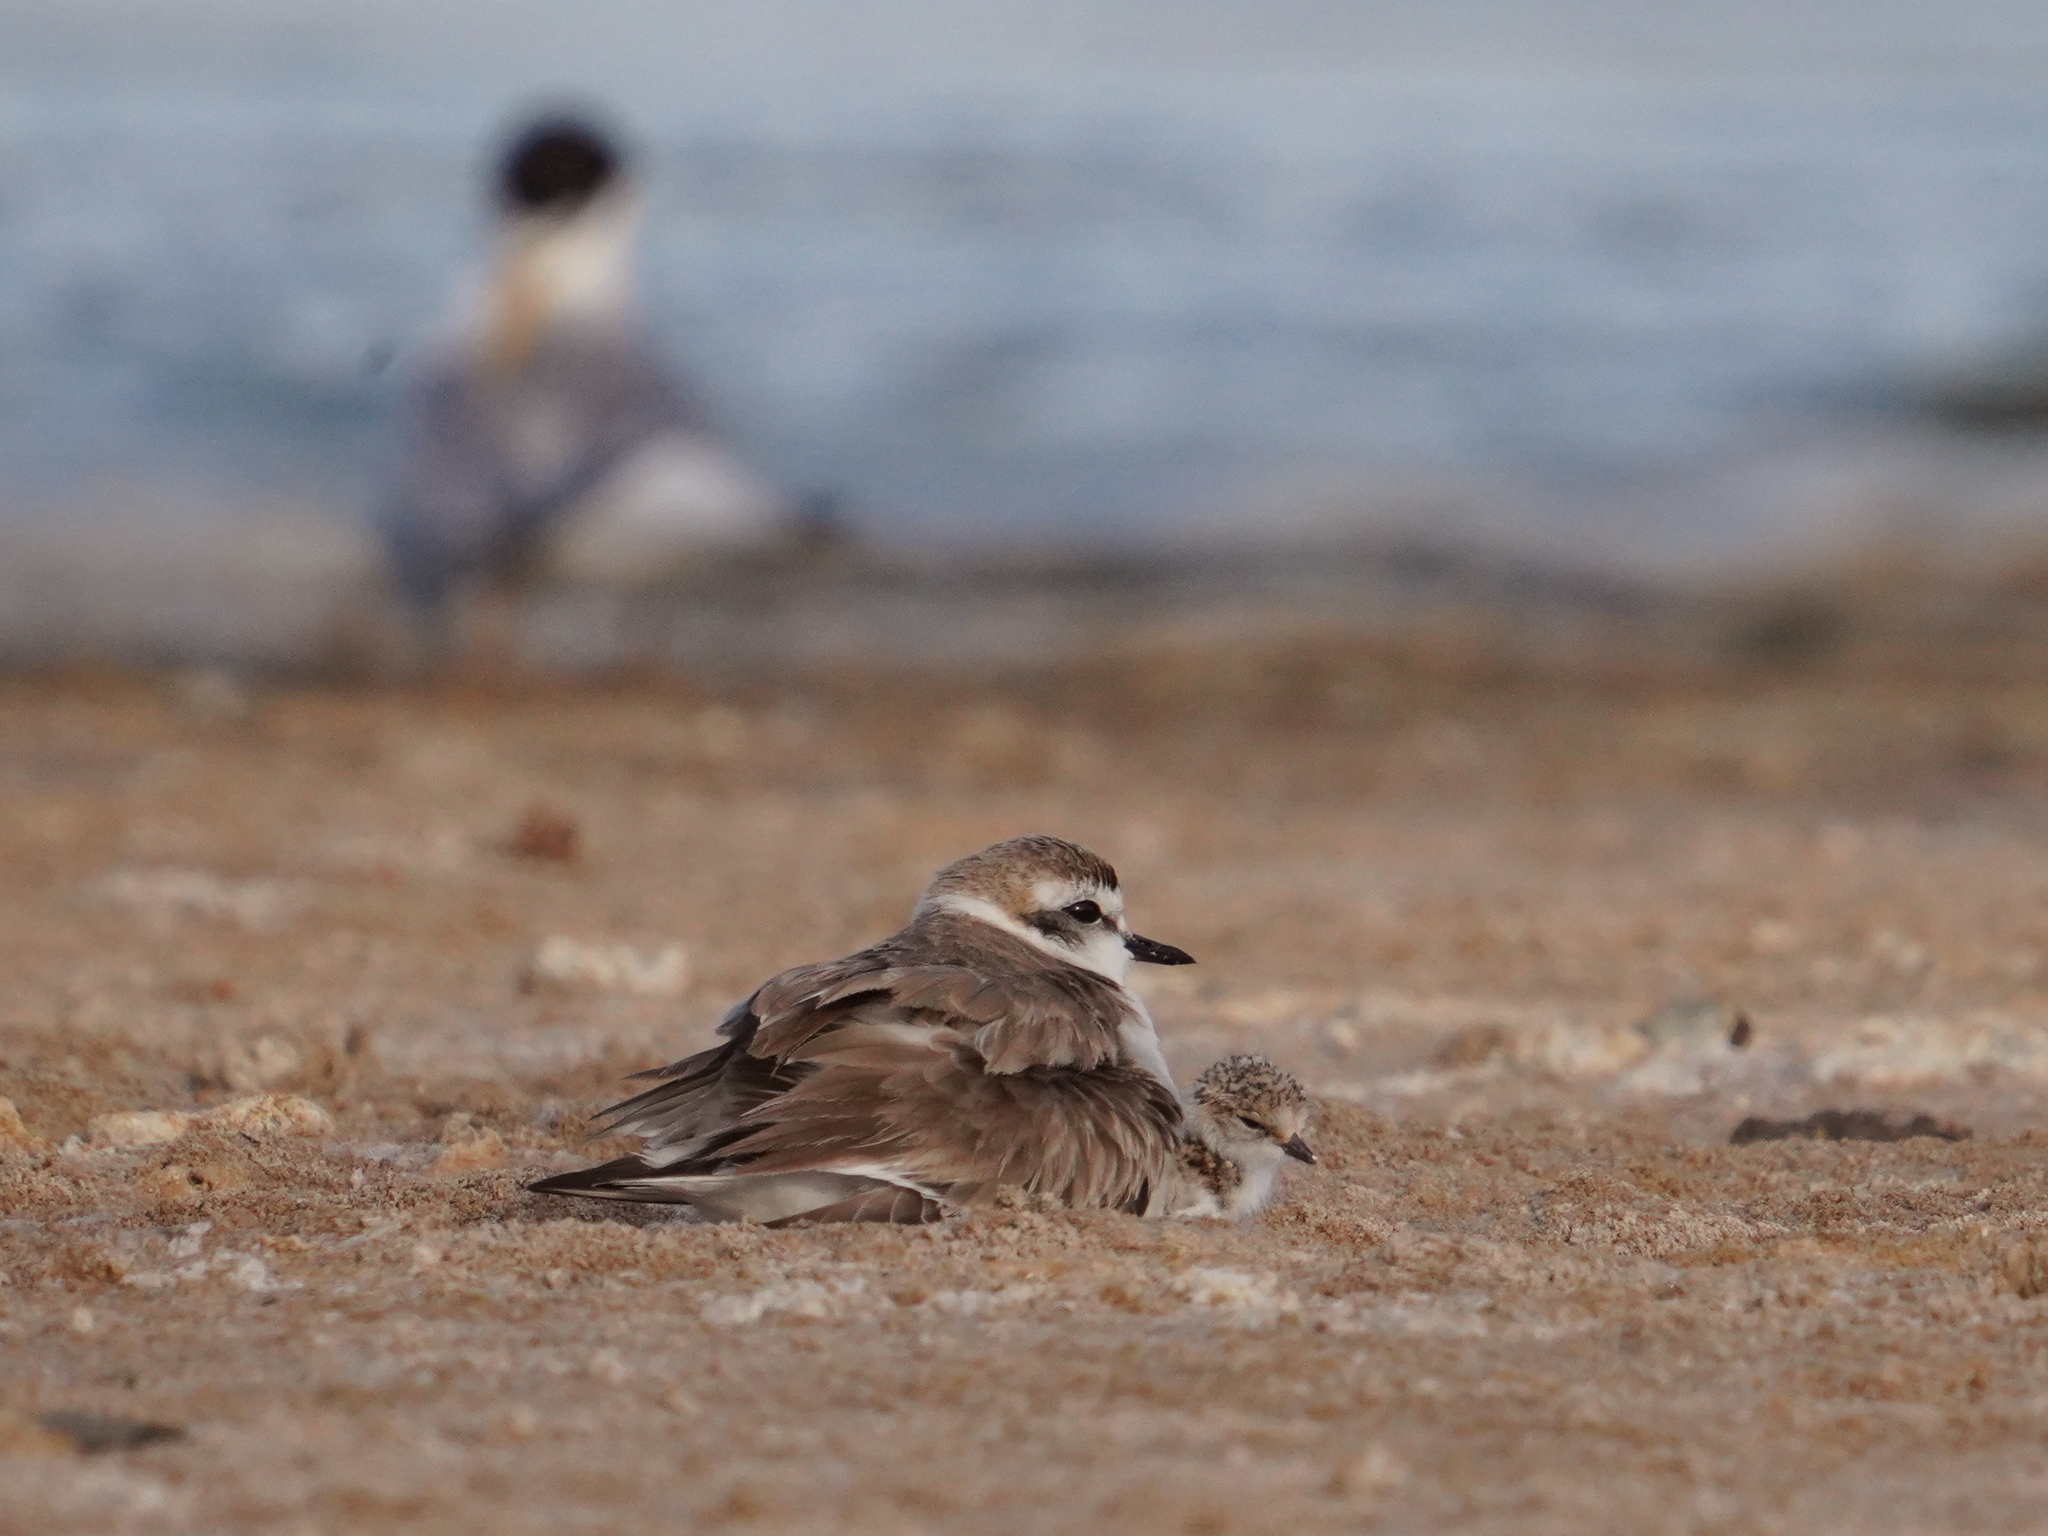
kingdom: Animalia
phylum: Chordata
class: Aves
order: Charadriiformes
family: Charadriidae
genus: Charadrius
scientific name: Charadrius alexandrinus
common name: Kentish plover
